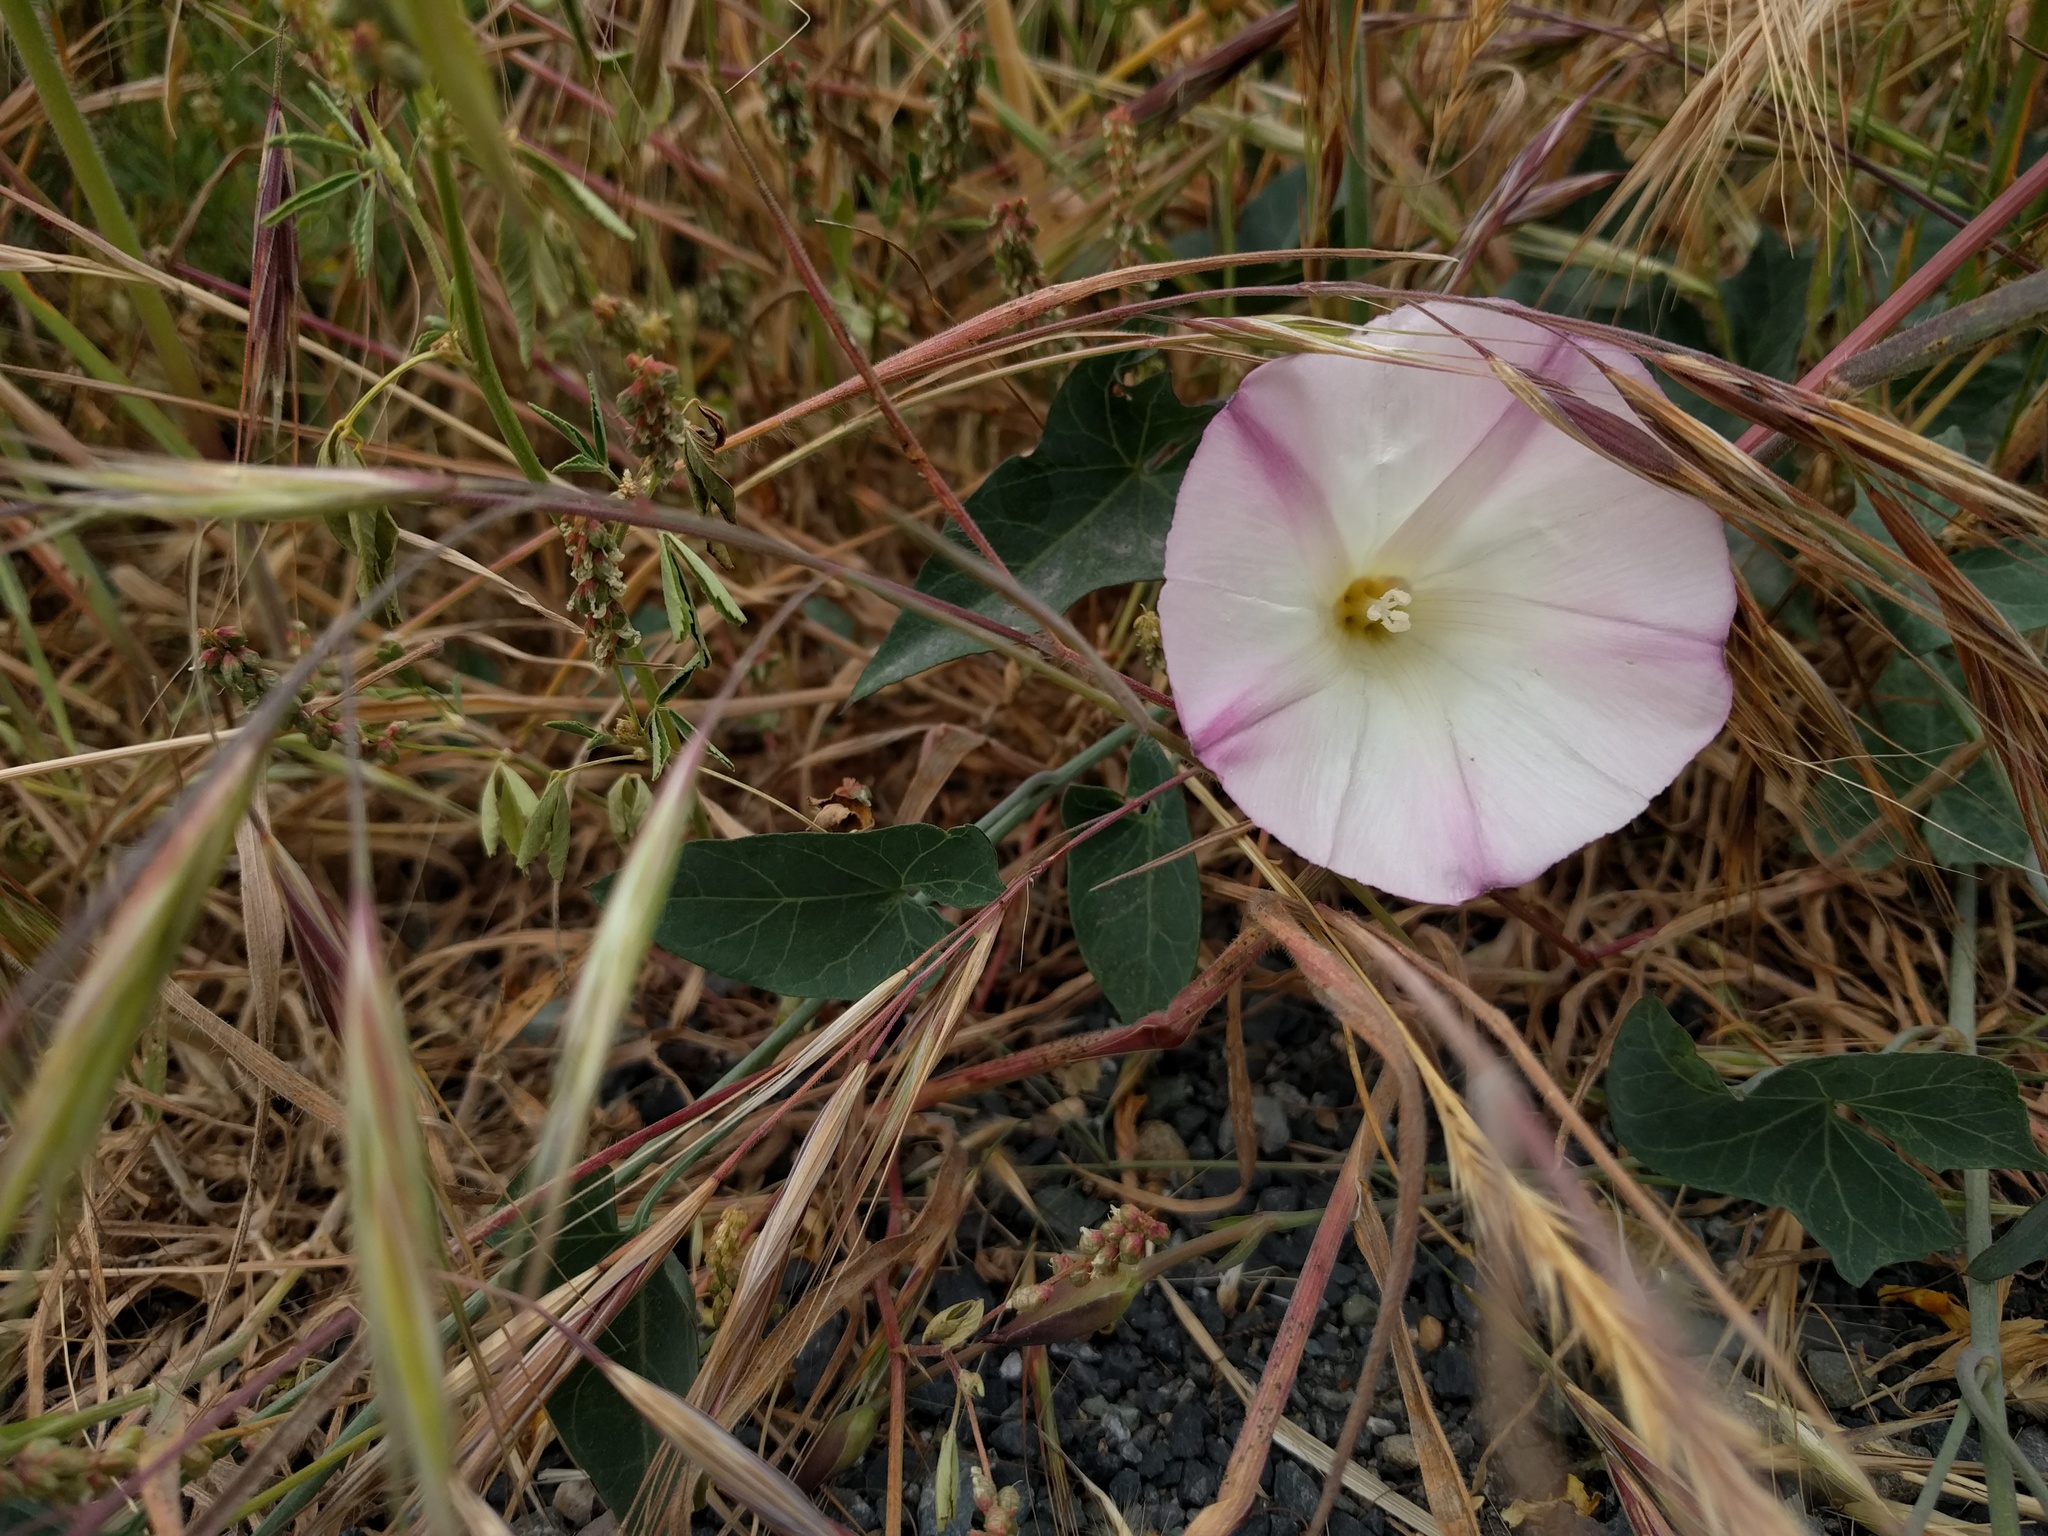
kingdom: Plantae
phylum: Tracheophyta
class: Magnoliopsida
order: Solanales
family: Convolvulaceae
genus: Calystegia
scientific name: Calystegia purpurata
